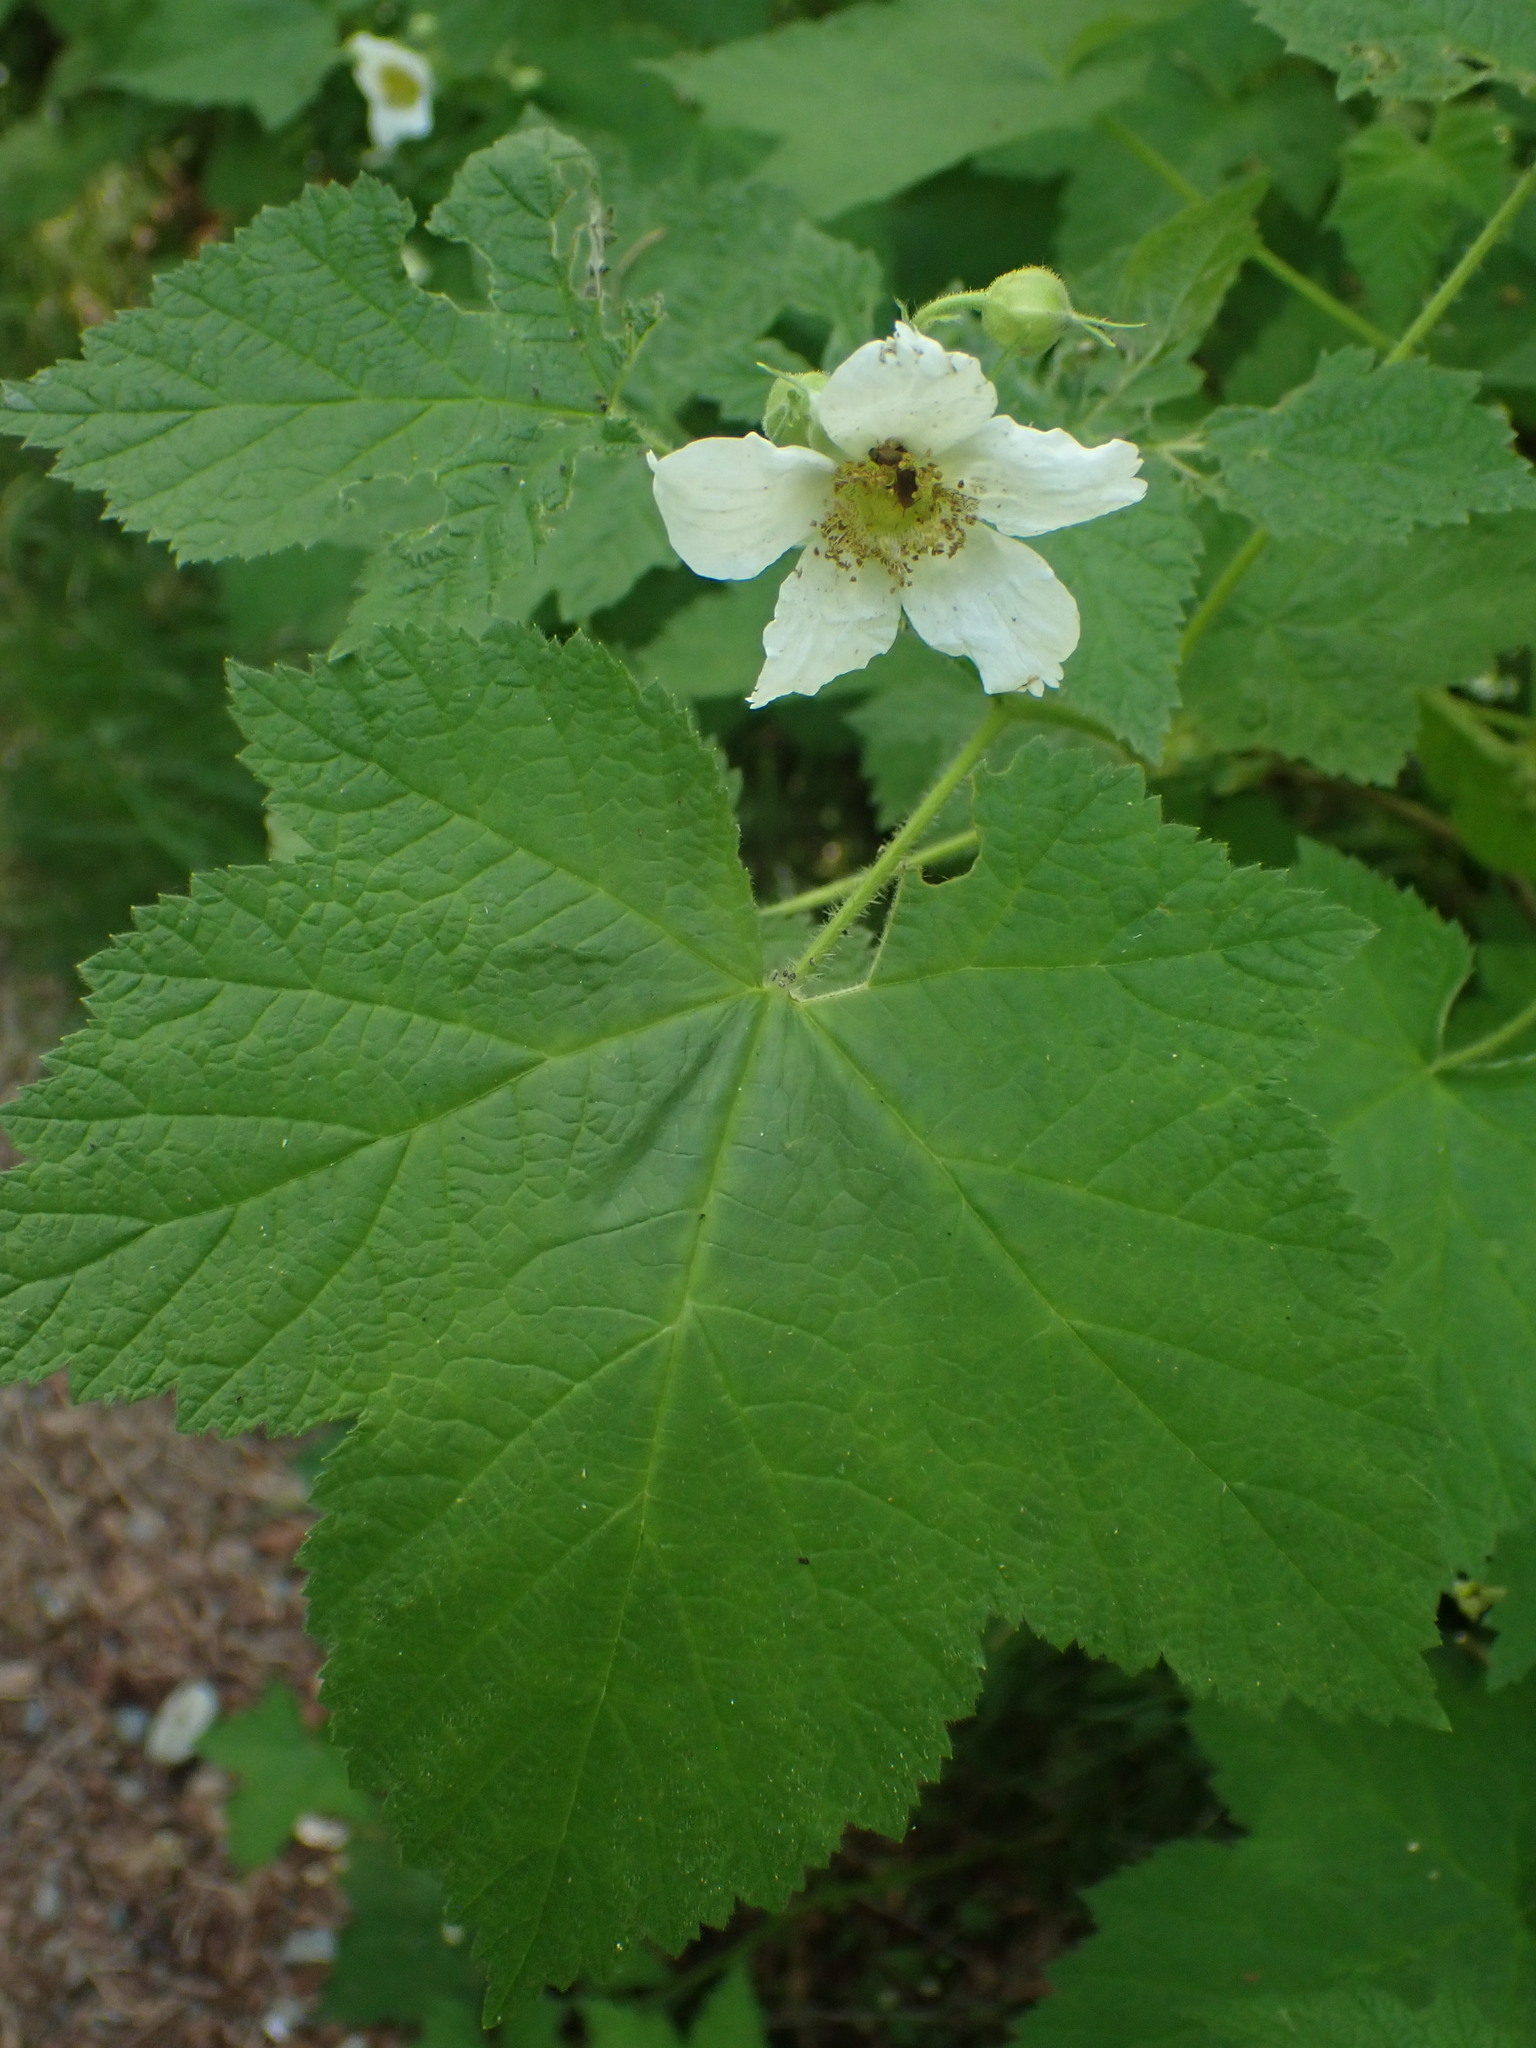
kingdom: Plantae
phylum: Tracheophyta
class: Magnoliopsida
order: Rosales
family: Rosaceae
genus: Rubus
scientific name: Rubus parviflorus
